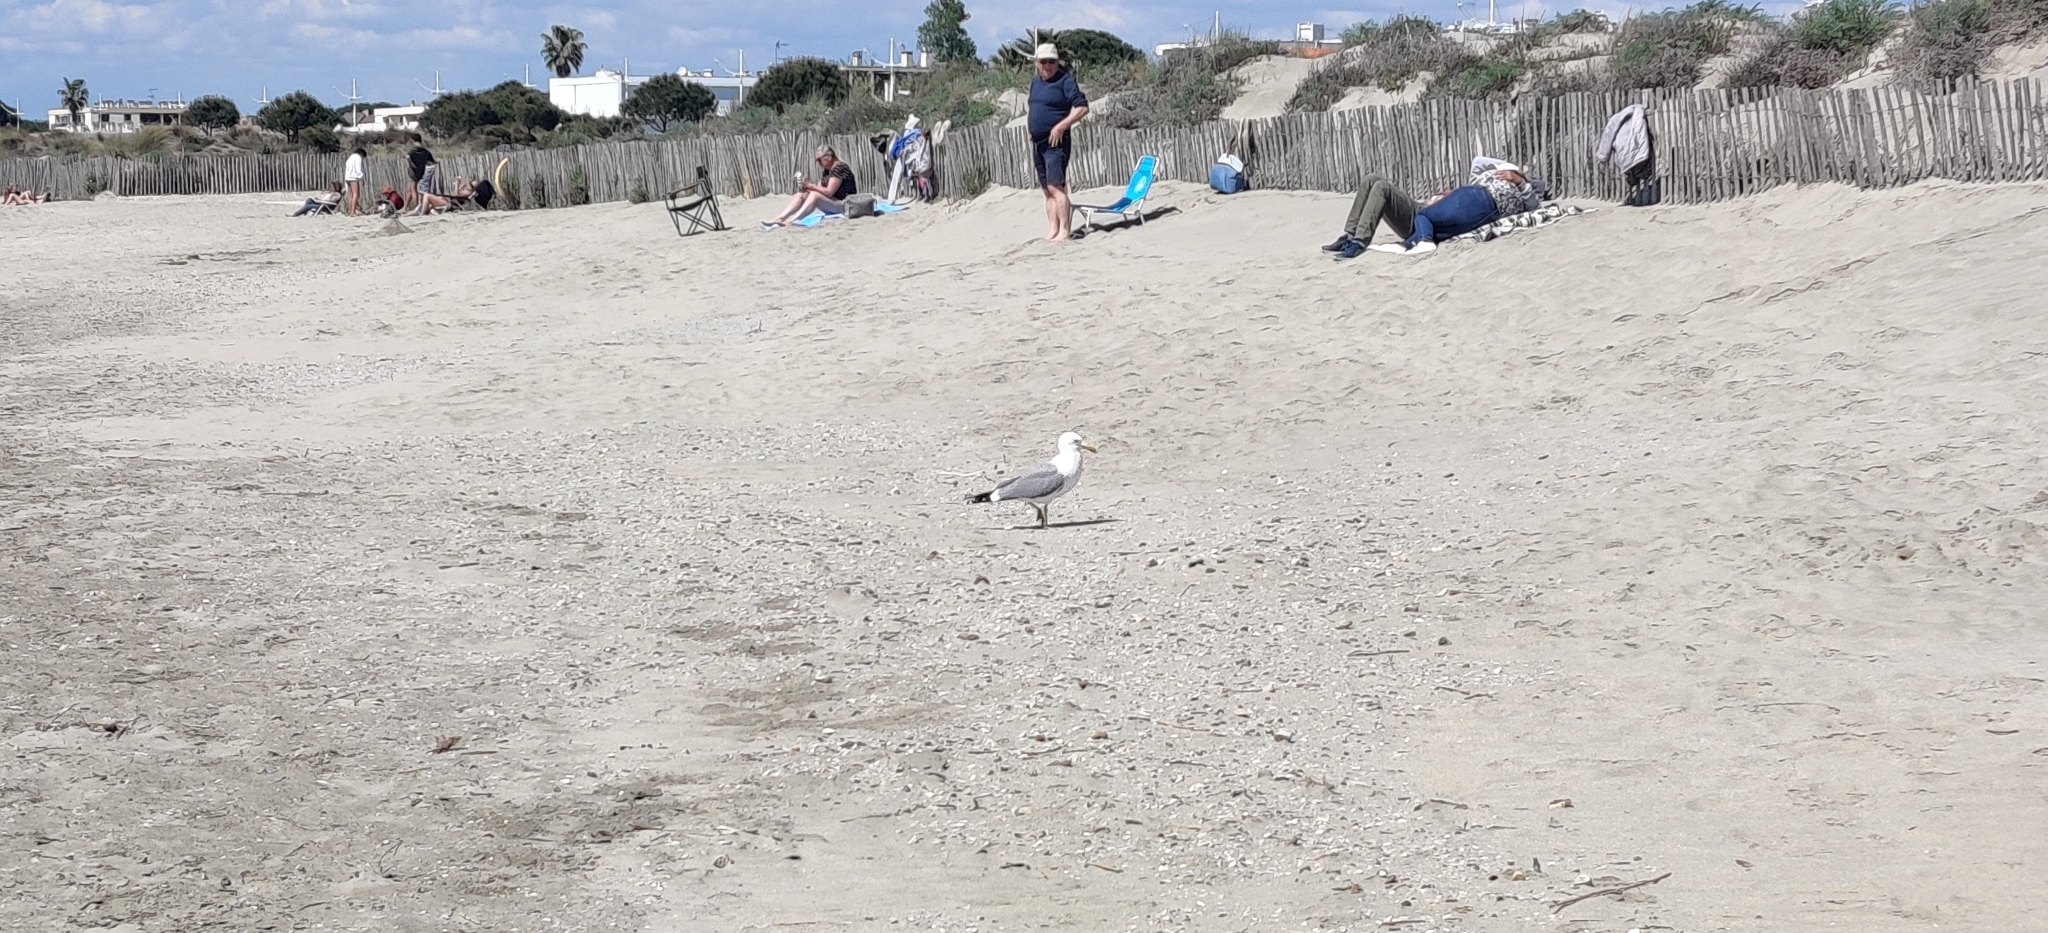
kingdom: Animalia
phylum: Chordata
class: Aves
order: Charadriiformes
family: Laridae
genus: Larus
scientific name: Larus michahellis
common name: Yellow-legged gull
